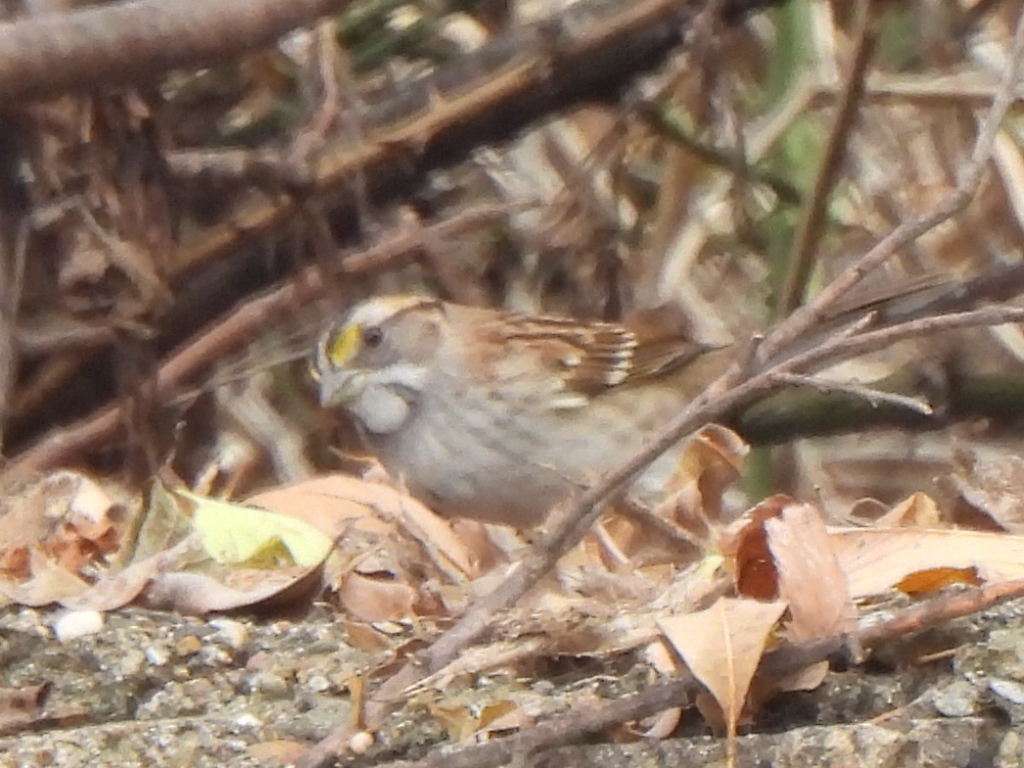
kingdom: Animalia
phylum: Chordata
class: Aves
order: Passeriformes
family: Passerellidae
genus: Zonotrichia
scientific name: Zonotrichia albicollis
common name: White-throated sparrow
